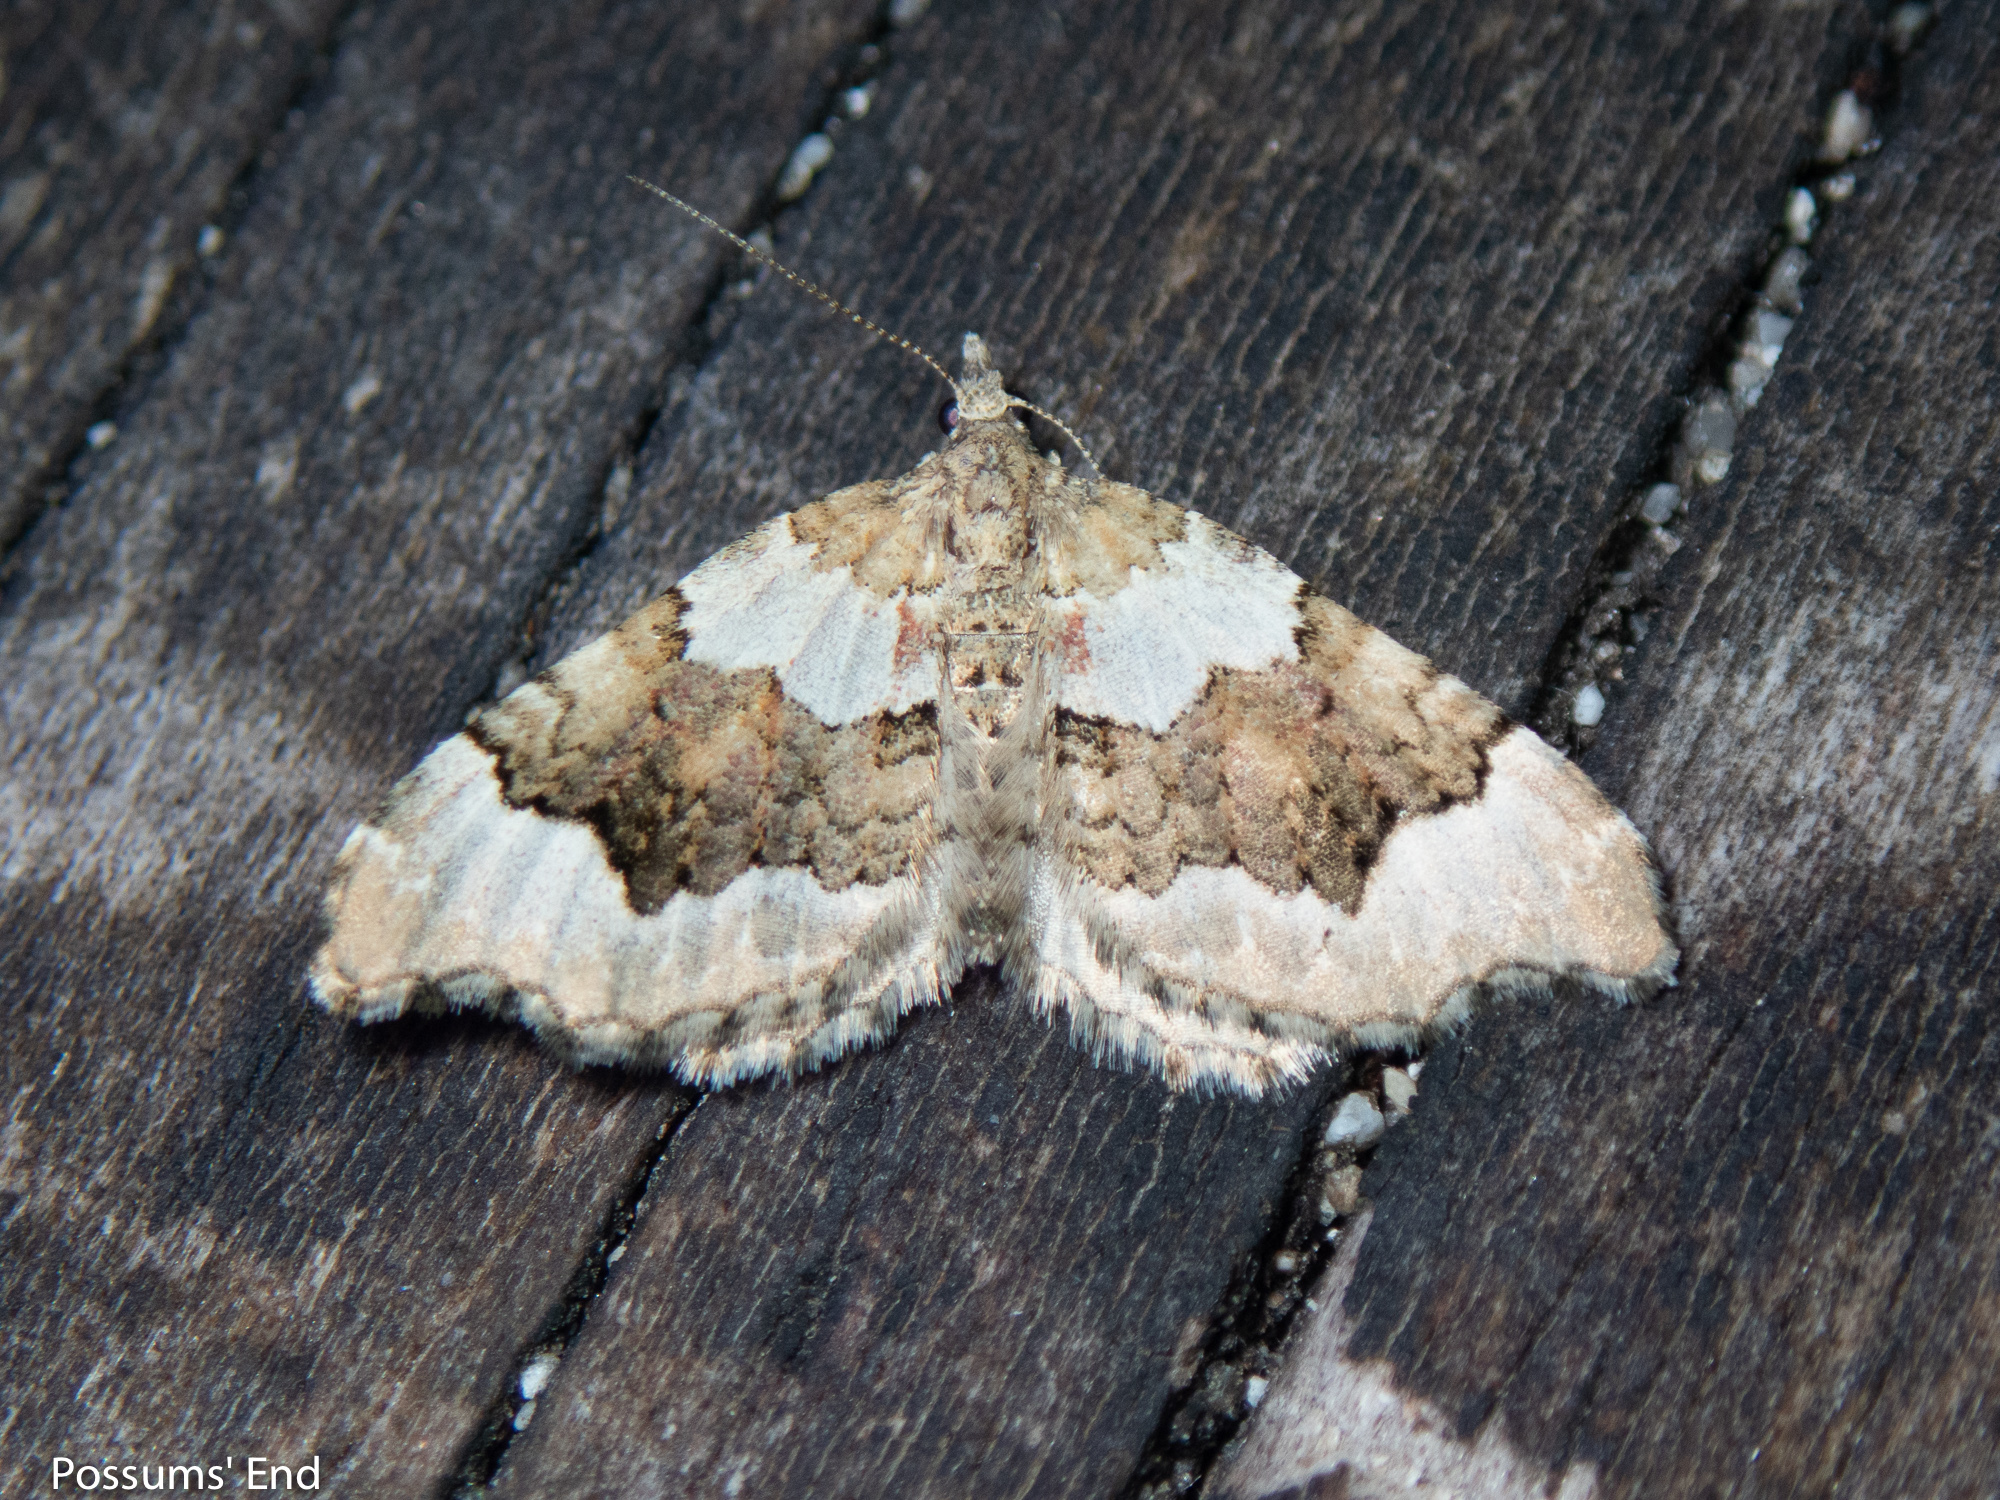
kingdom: Animalia
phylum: Arthropoda
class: Insecta
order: Lepidoptera
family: Geometridae
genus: Helastia
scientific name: Helastia cryptica
